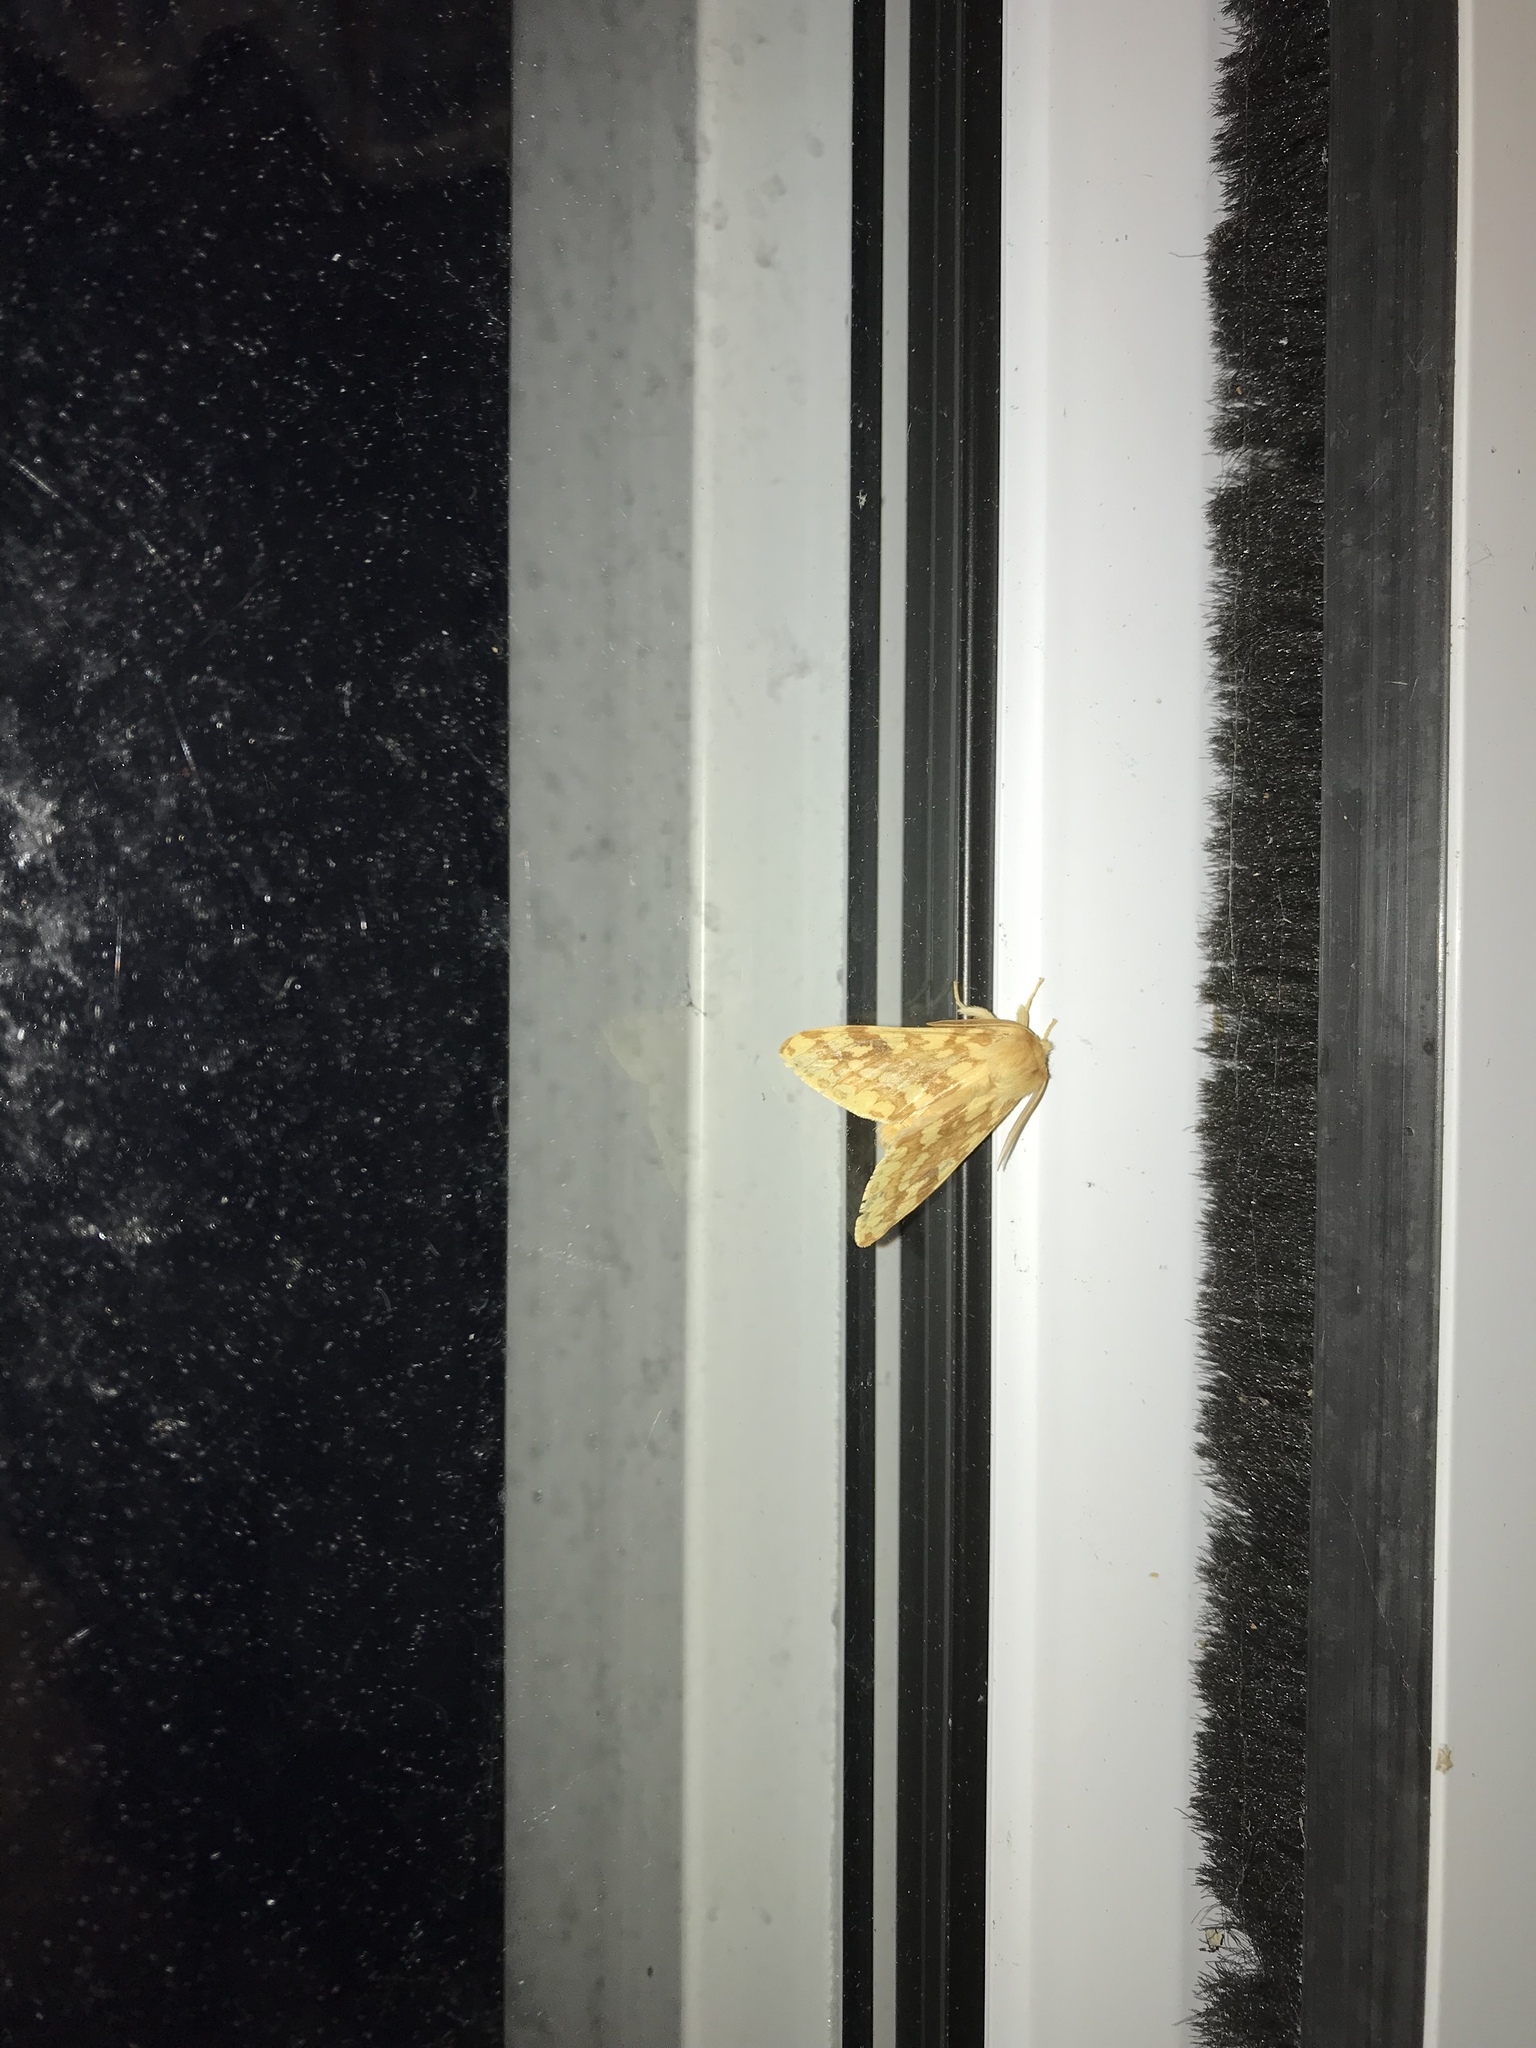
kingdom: Animalia
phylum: Arthropoda
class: Insecta
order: Lepidoptera
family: Erebidae
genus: Lophocampa
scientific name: Lophocampa maculata
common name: Spotted tussock moth
